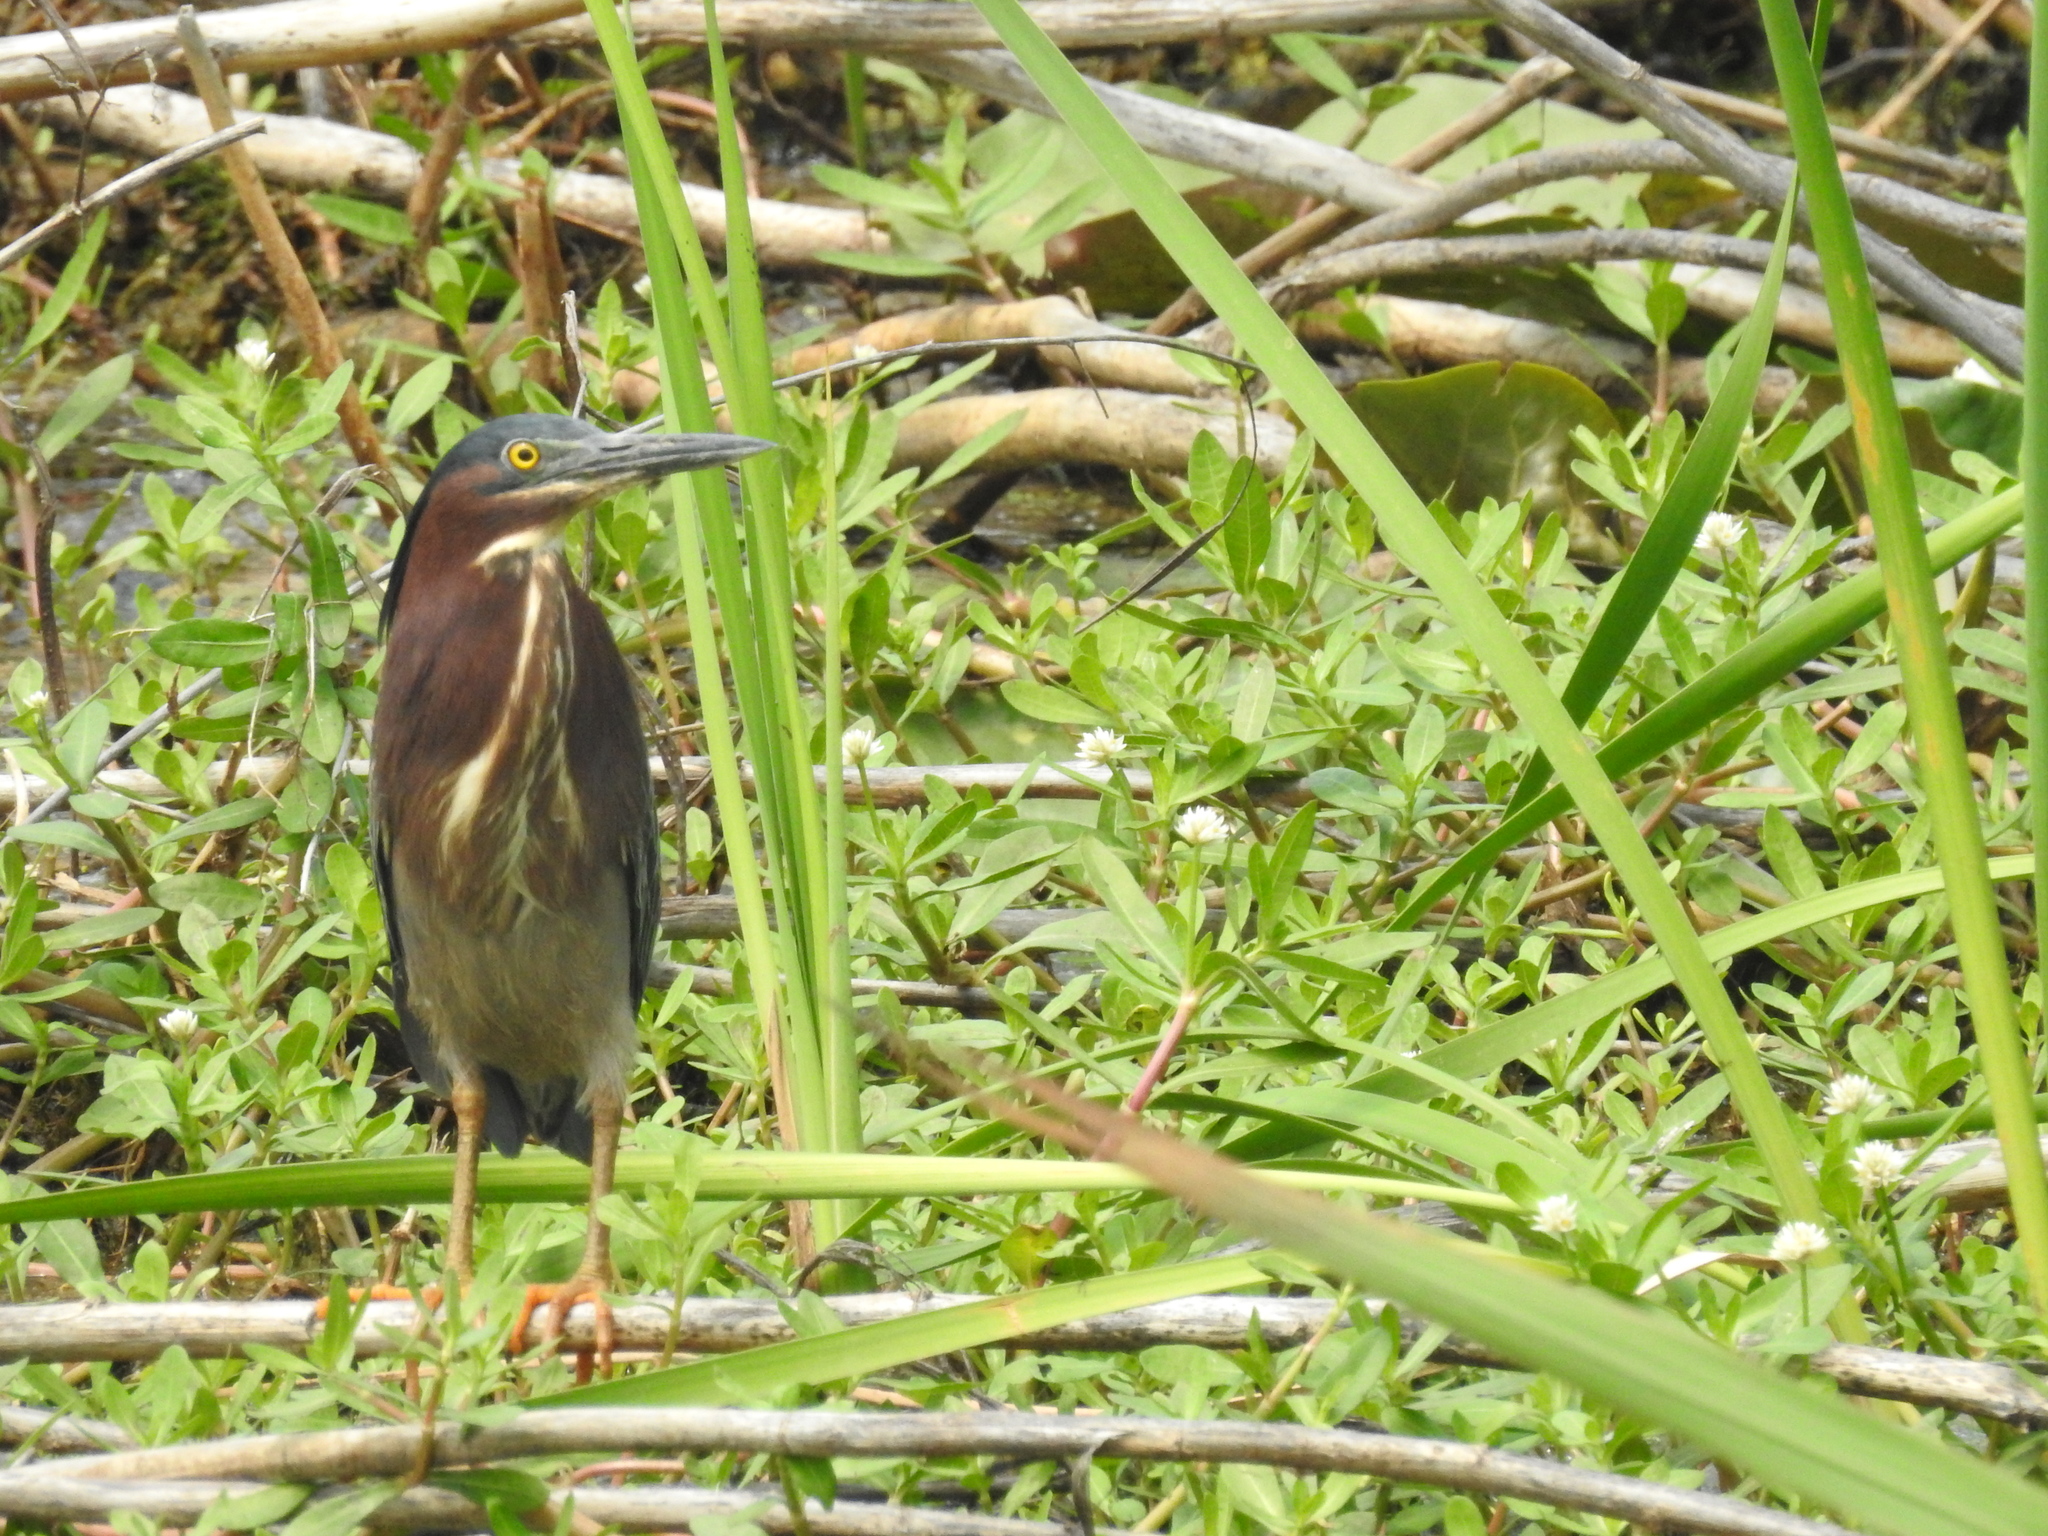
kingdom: Animalia
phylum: Chordata
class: Aves
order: Pelecaniformes
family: Ardeidae
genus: Butorides
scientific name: Butorides virescens
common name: Green heron
